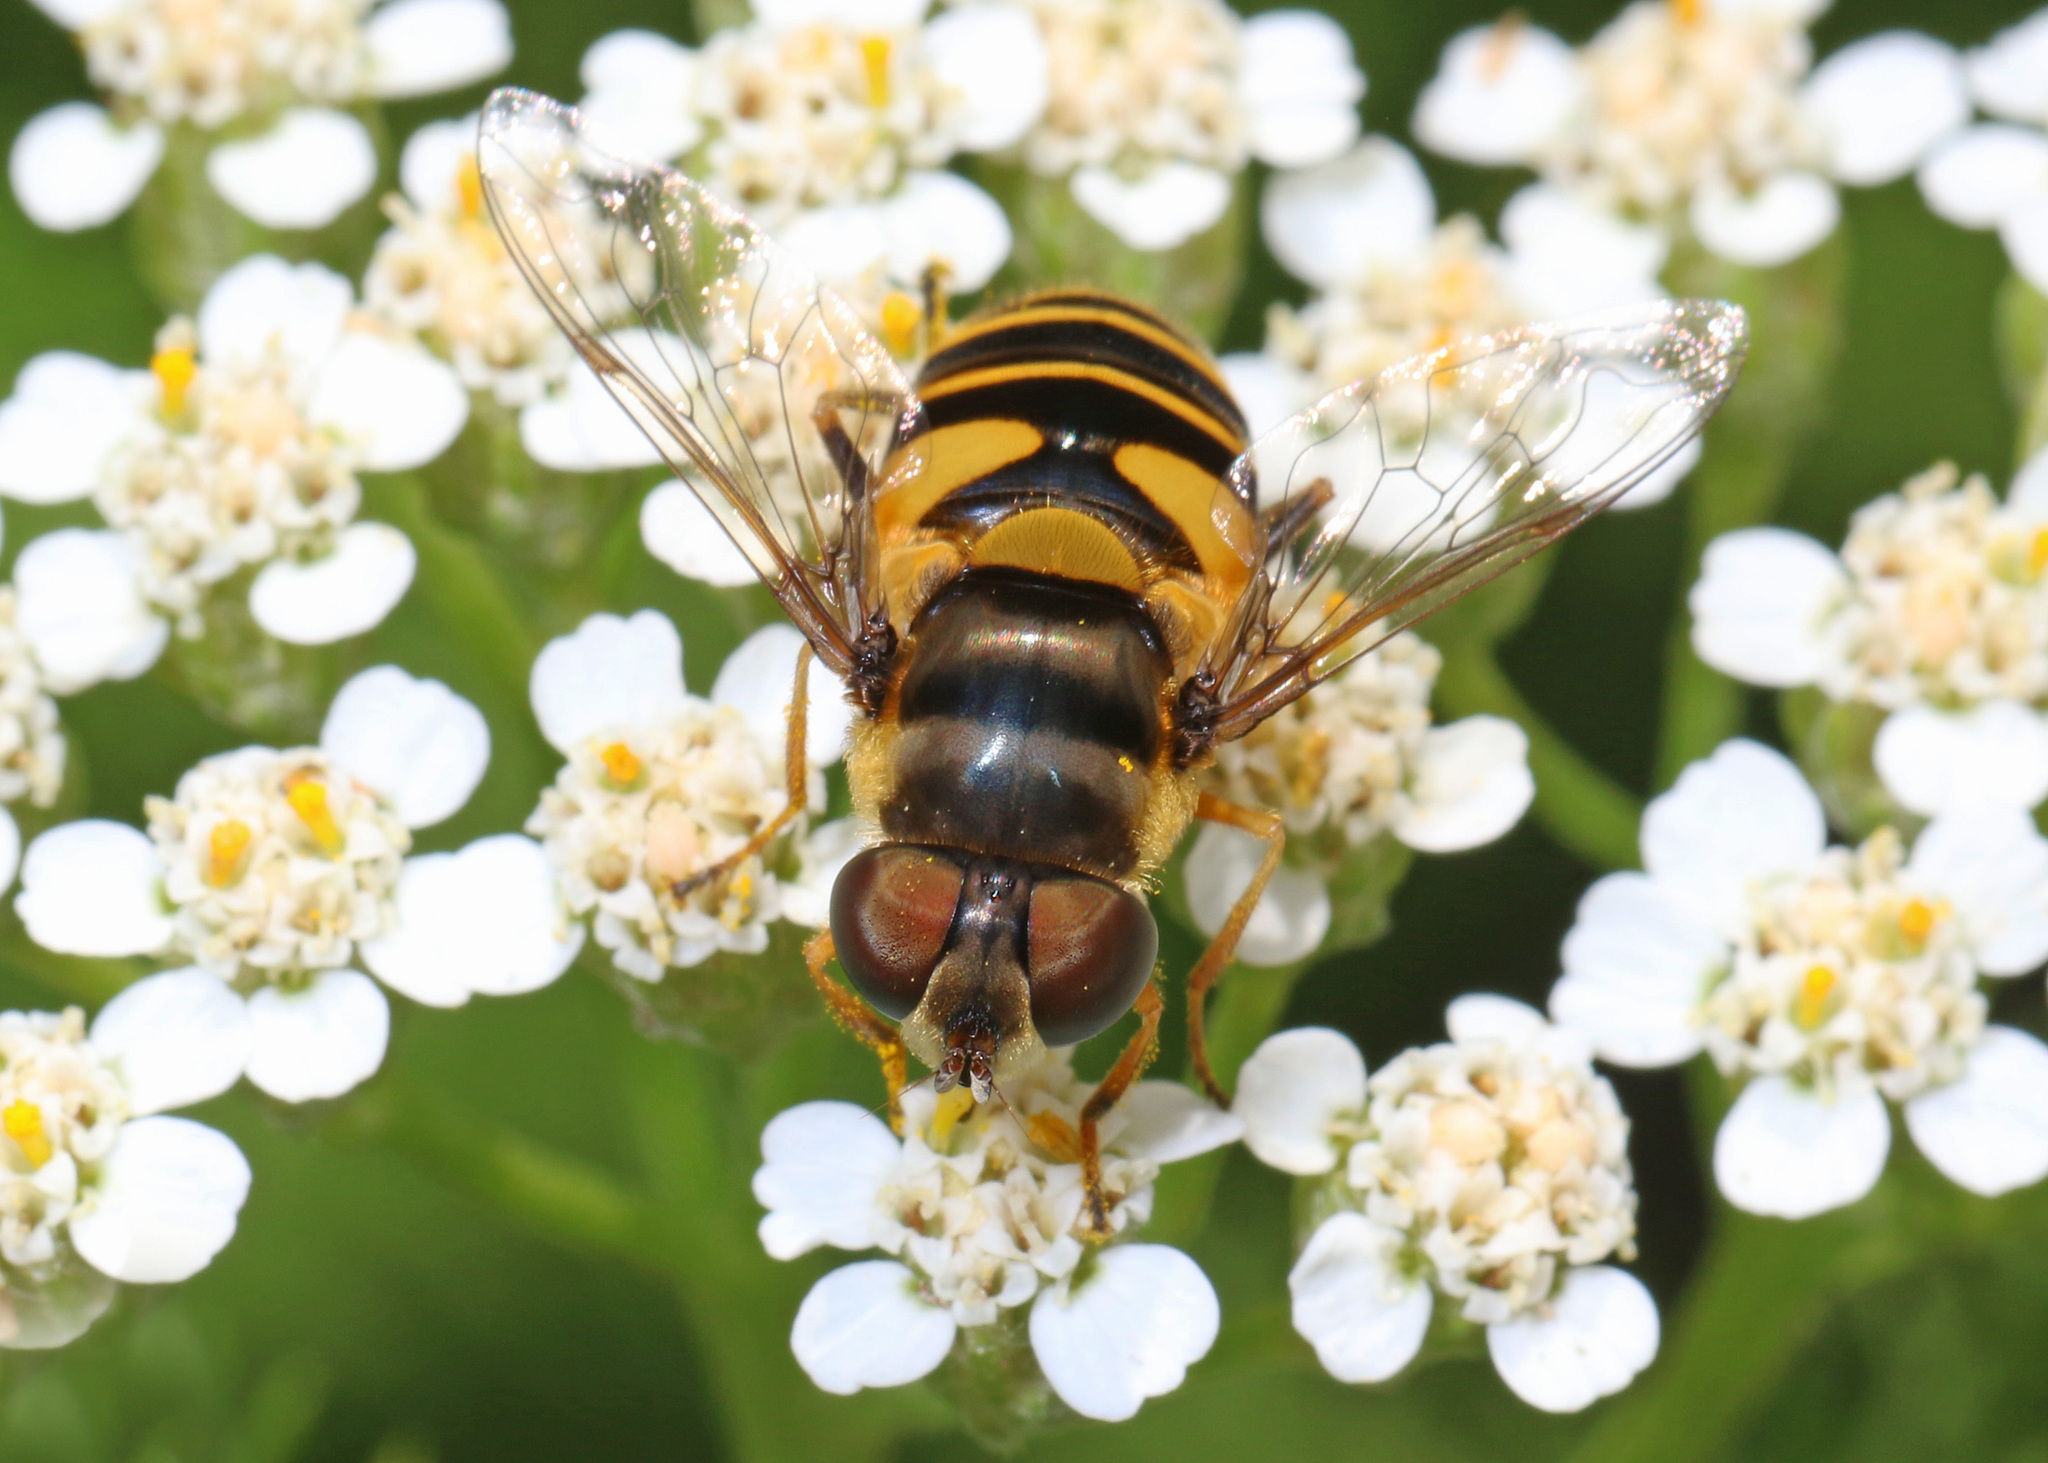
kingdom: Animalia
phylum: Arthropoda
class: Insecta
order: Diptera
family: Syrphidae
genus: Eristalis
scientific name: Eristalis transversa
